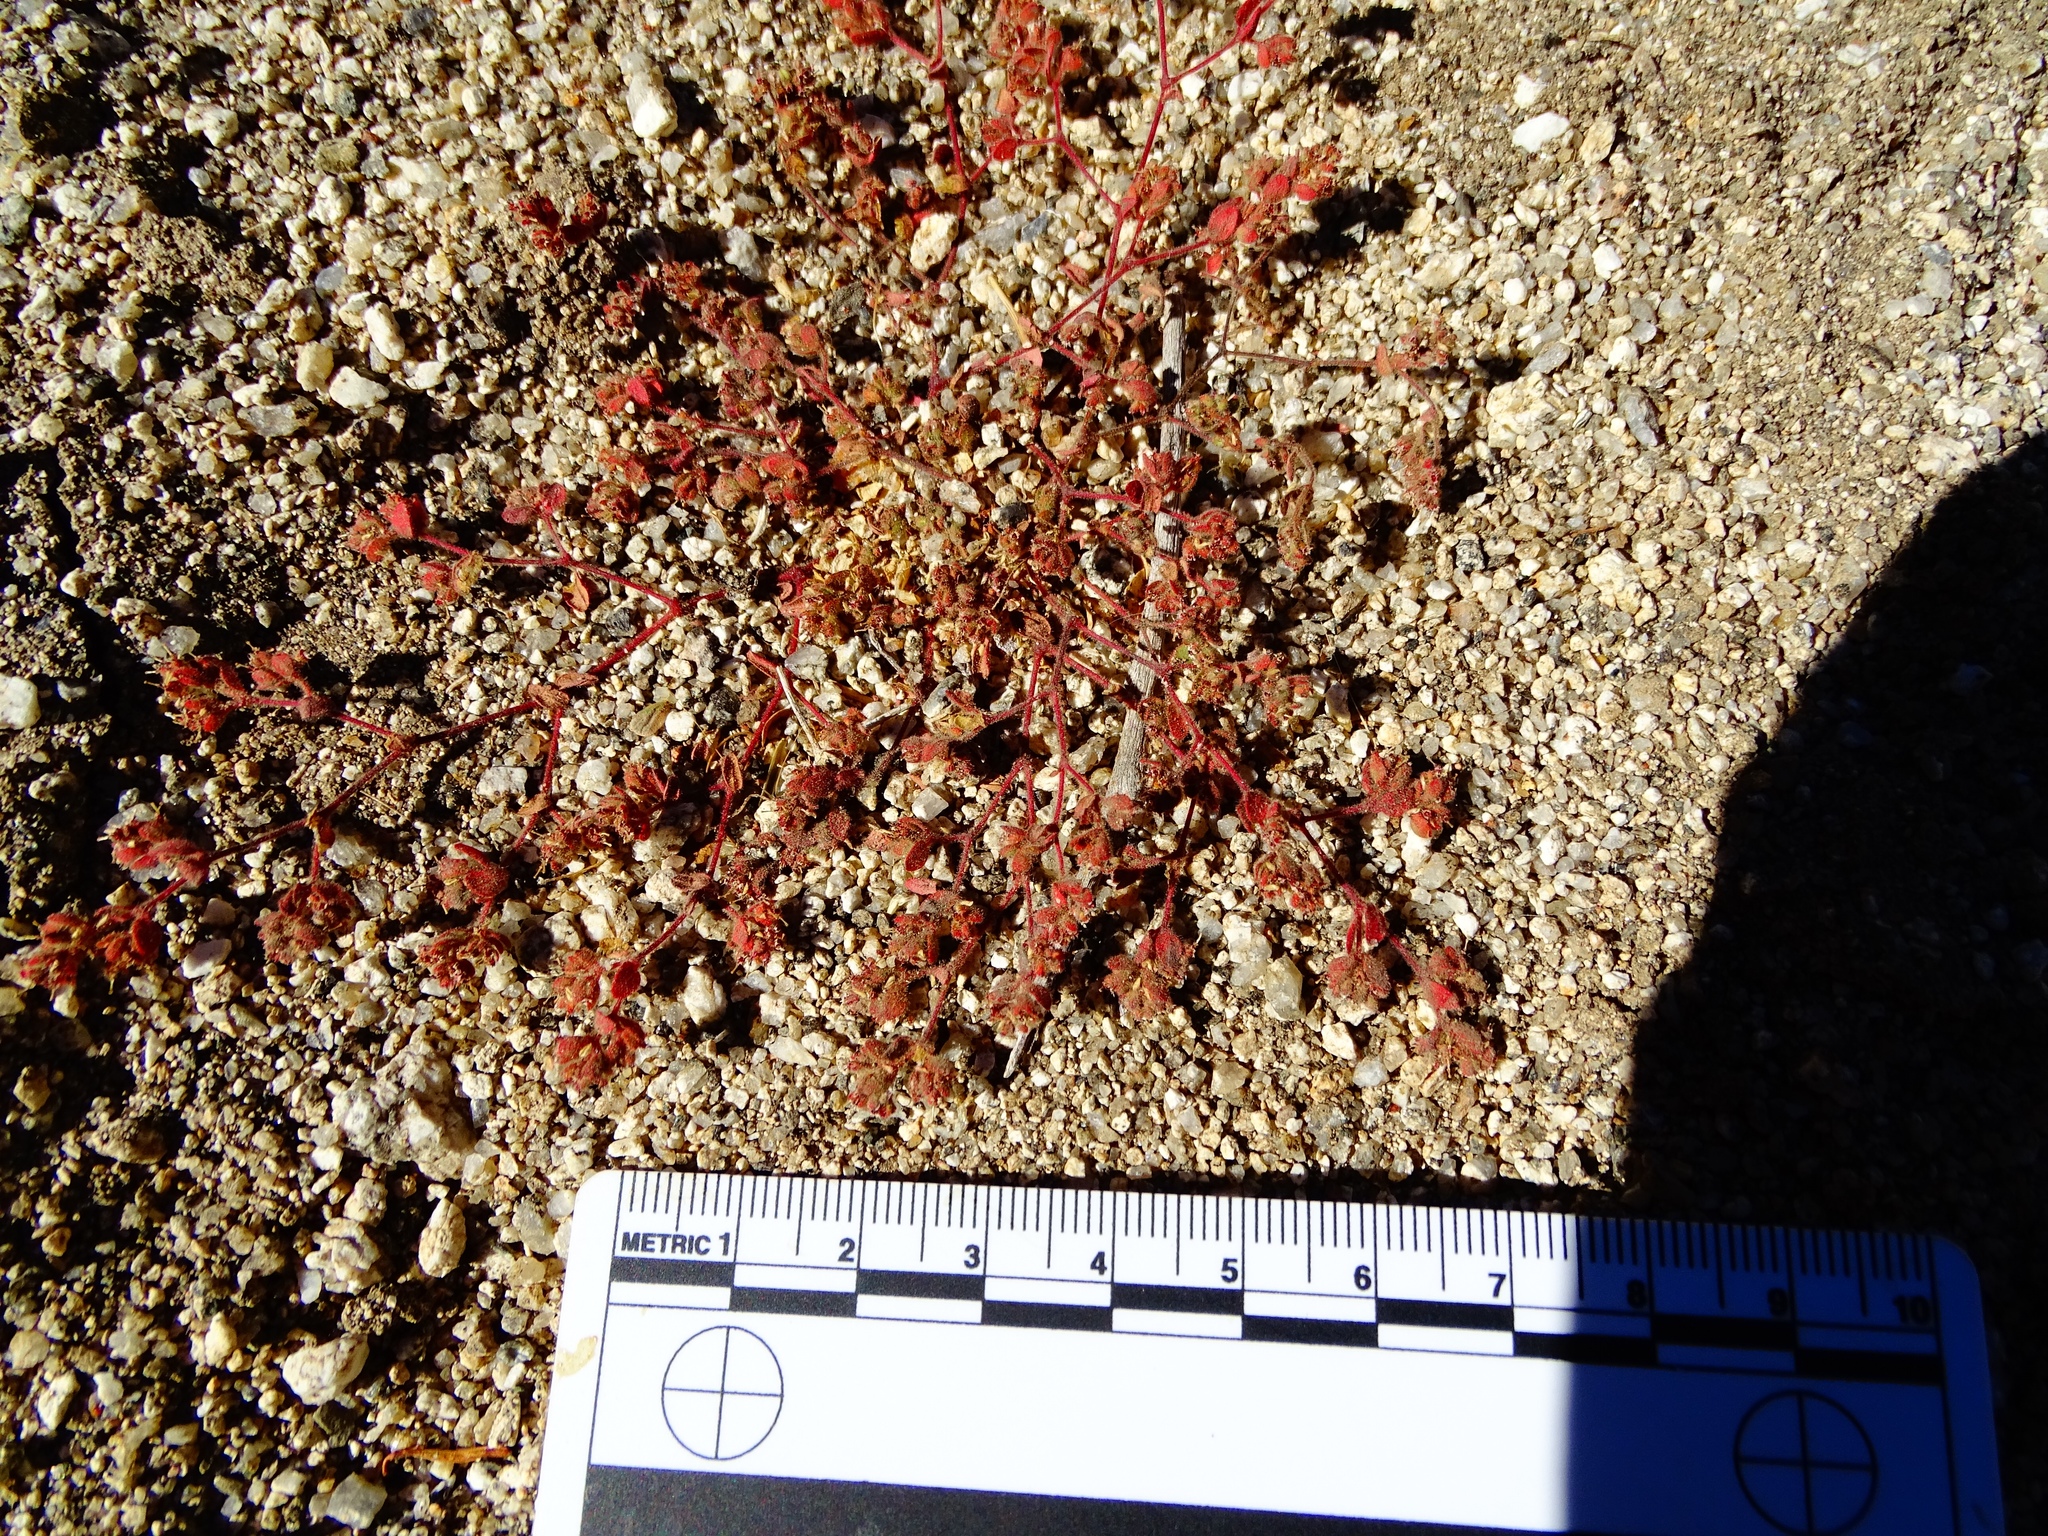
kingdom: Plantae
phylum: Tracheophyta
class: Magnoliopsida
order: Malpighiales
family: Euphorbiaceae
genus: Euphorbia
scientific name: Euphorbia setiloba
